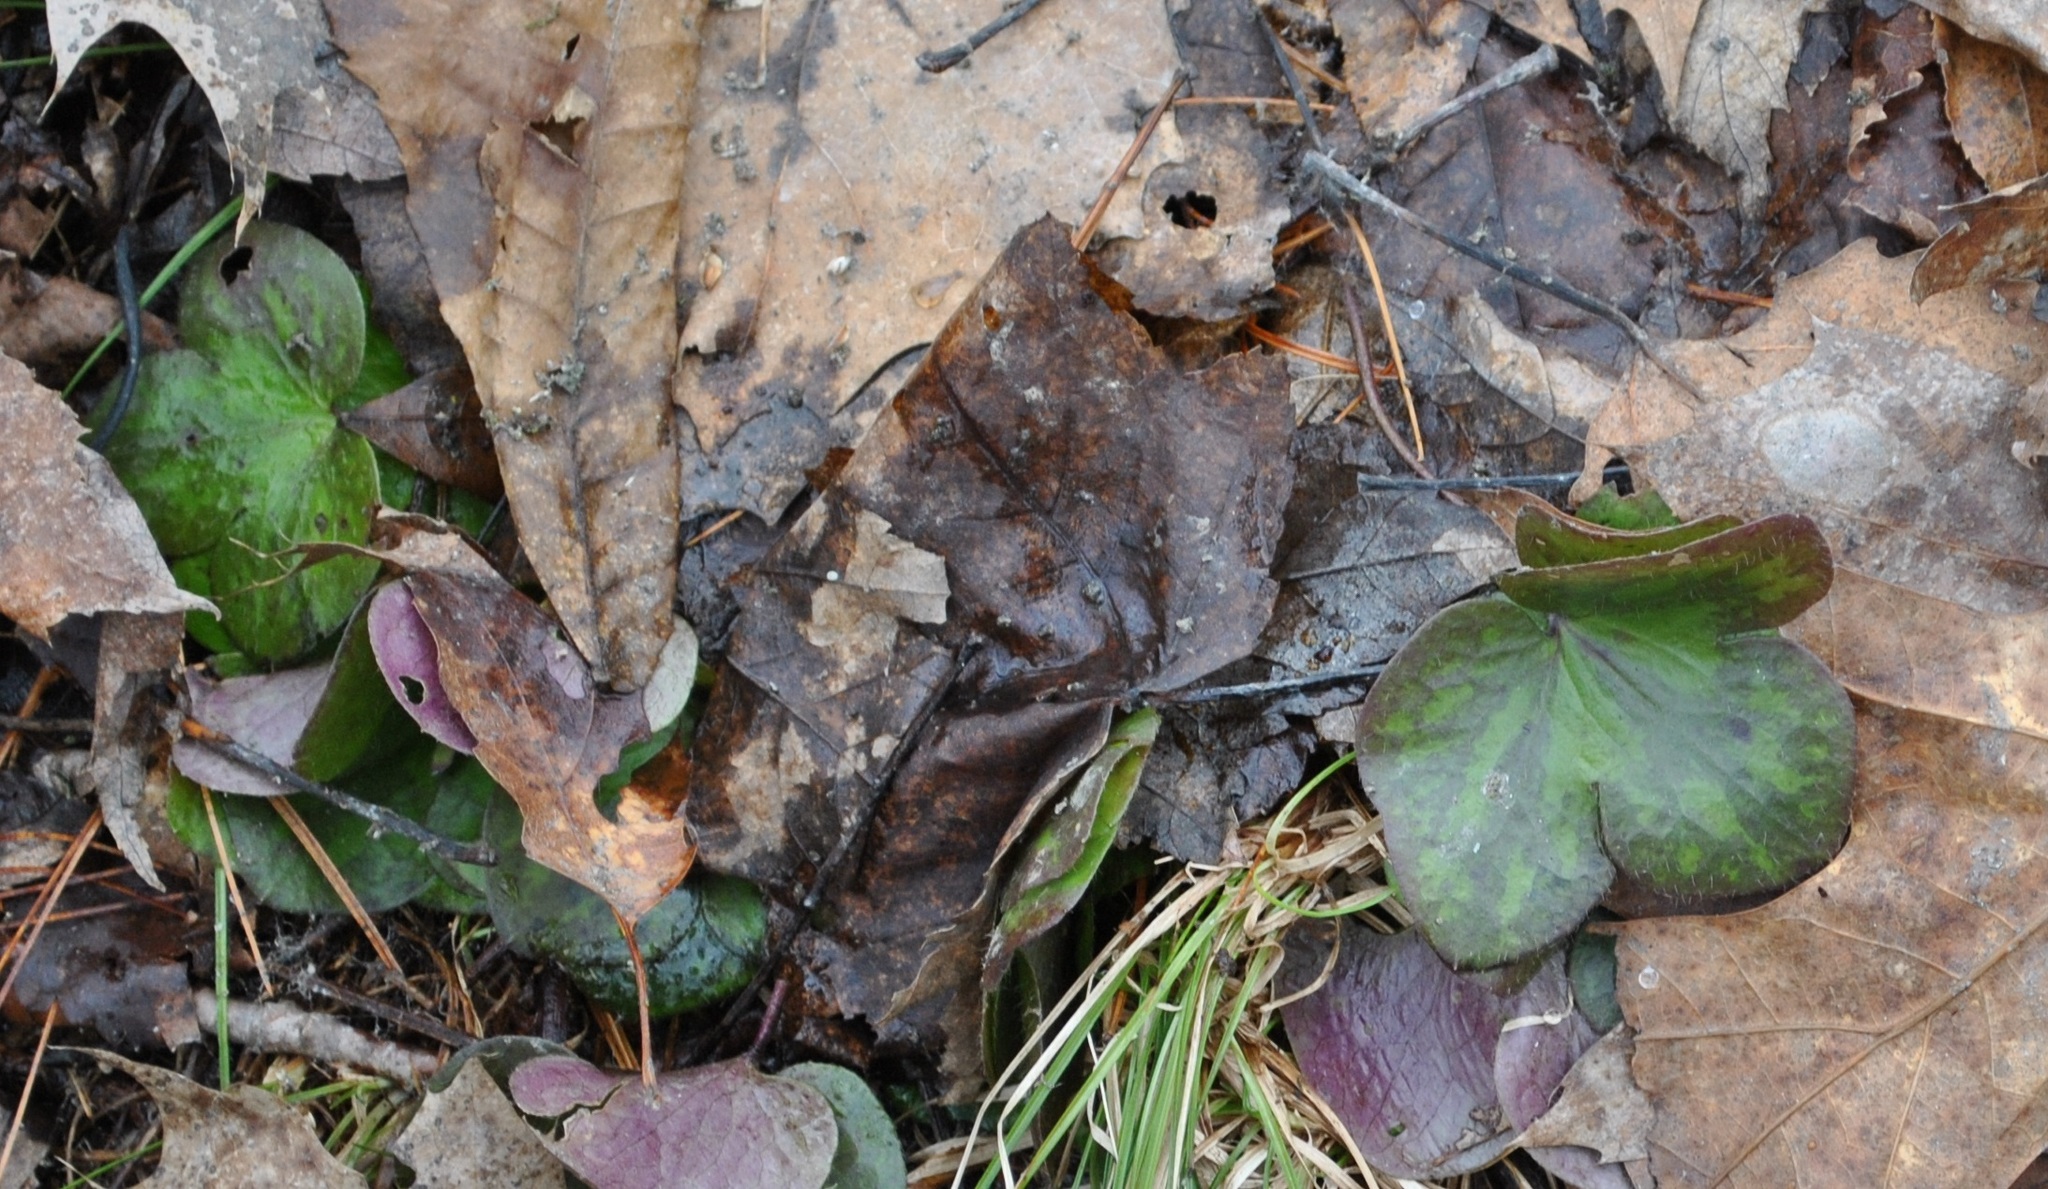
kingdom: Plantae
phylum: Tracheophyta
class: Magnoliopsida
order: Ranunculales
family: Ranunculaceae
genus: Hepatica
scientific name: Hepatica americana
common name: American hepatica
